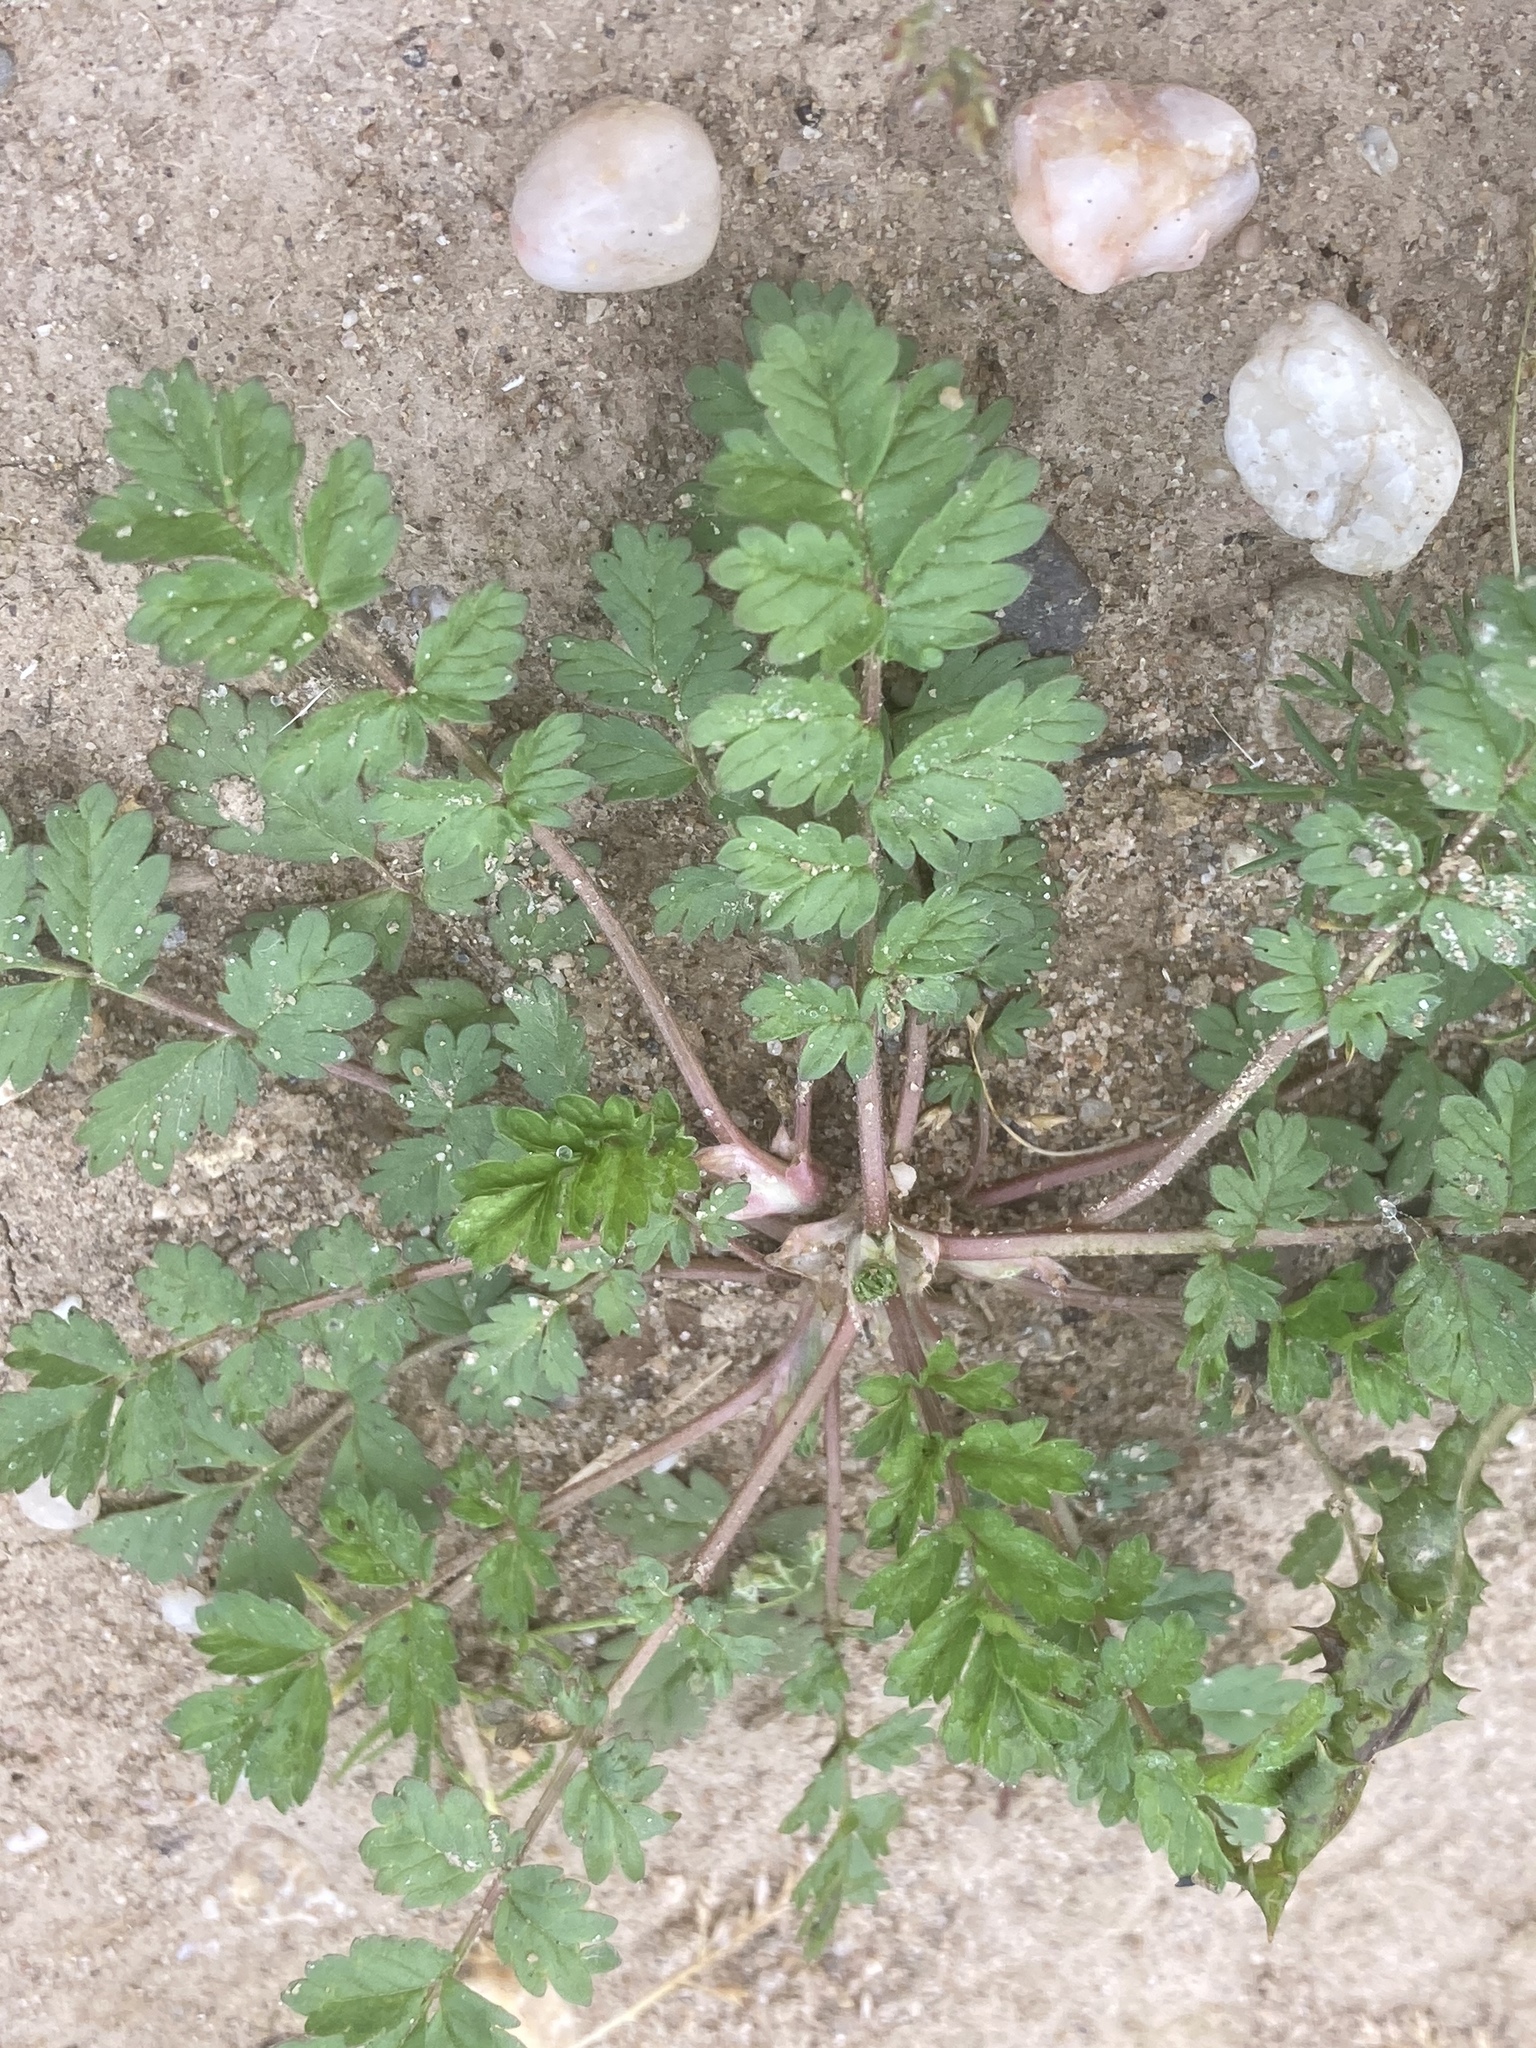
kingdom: Plantae
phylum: Tracheophyta
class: Magnoliopsida
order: Rosales
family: Rosaceae
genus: Potentilla
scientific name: Potentilla supina
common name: Prostrate cinquefoil
